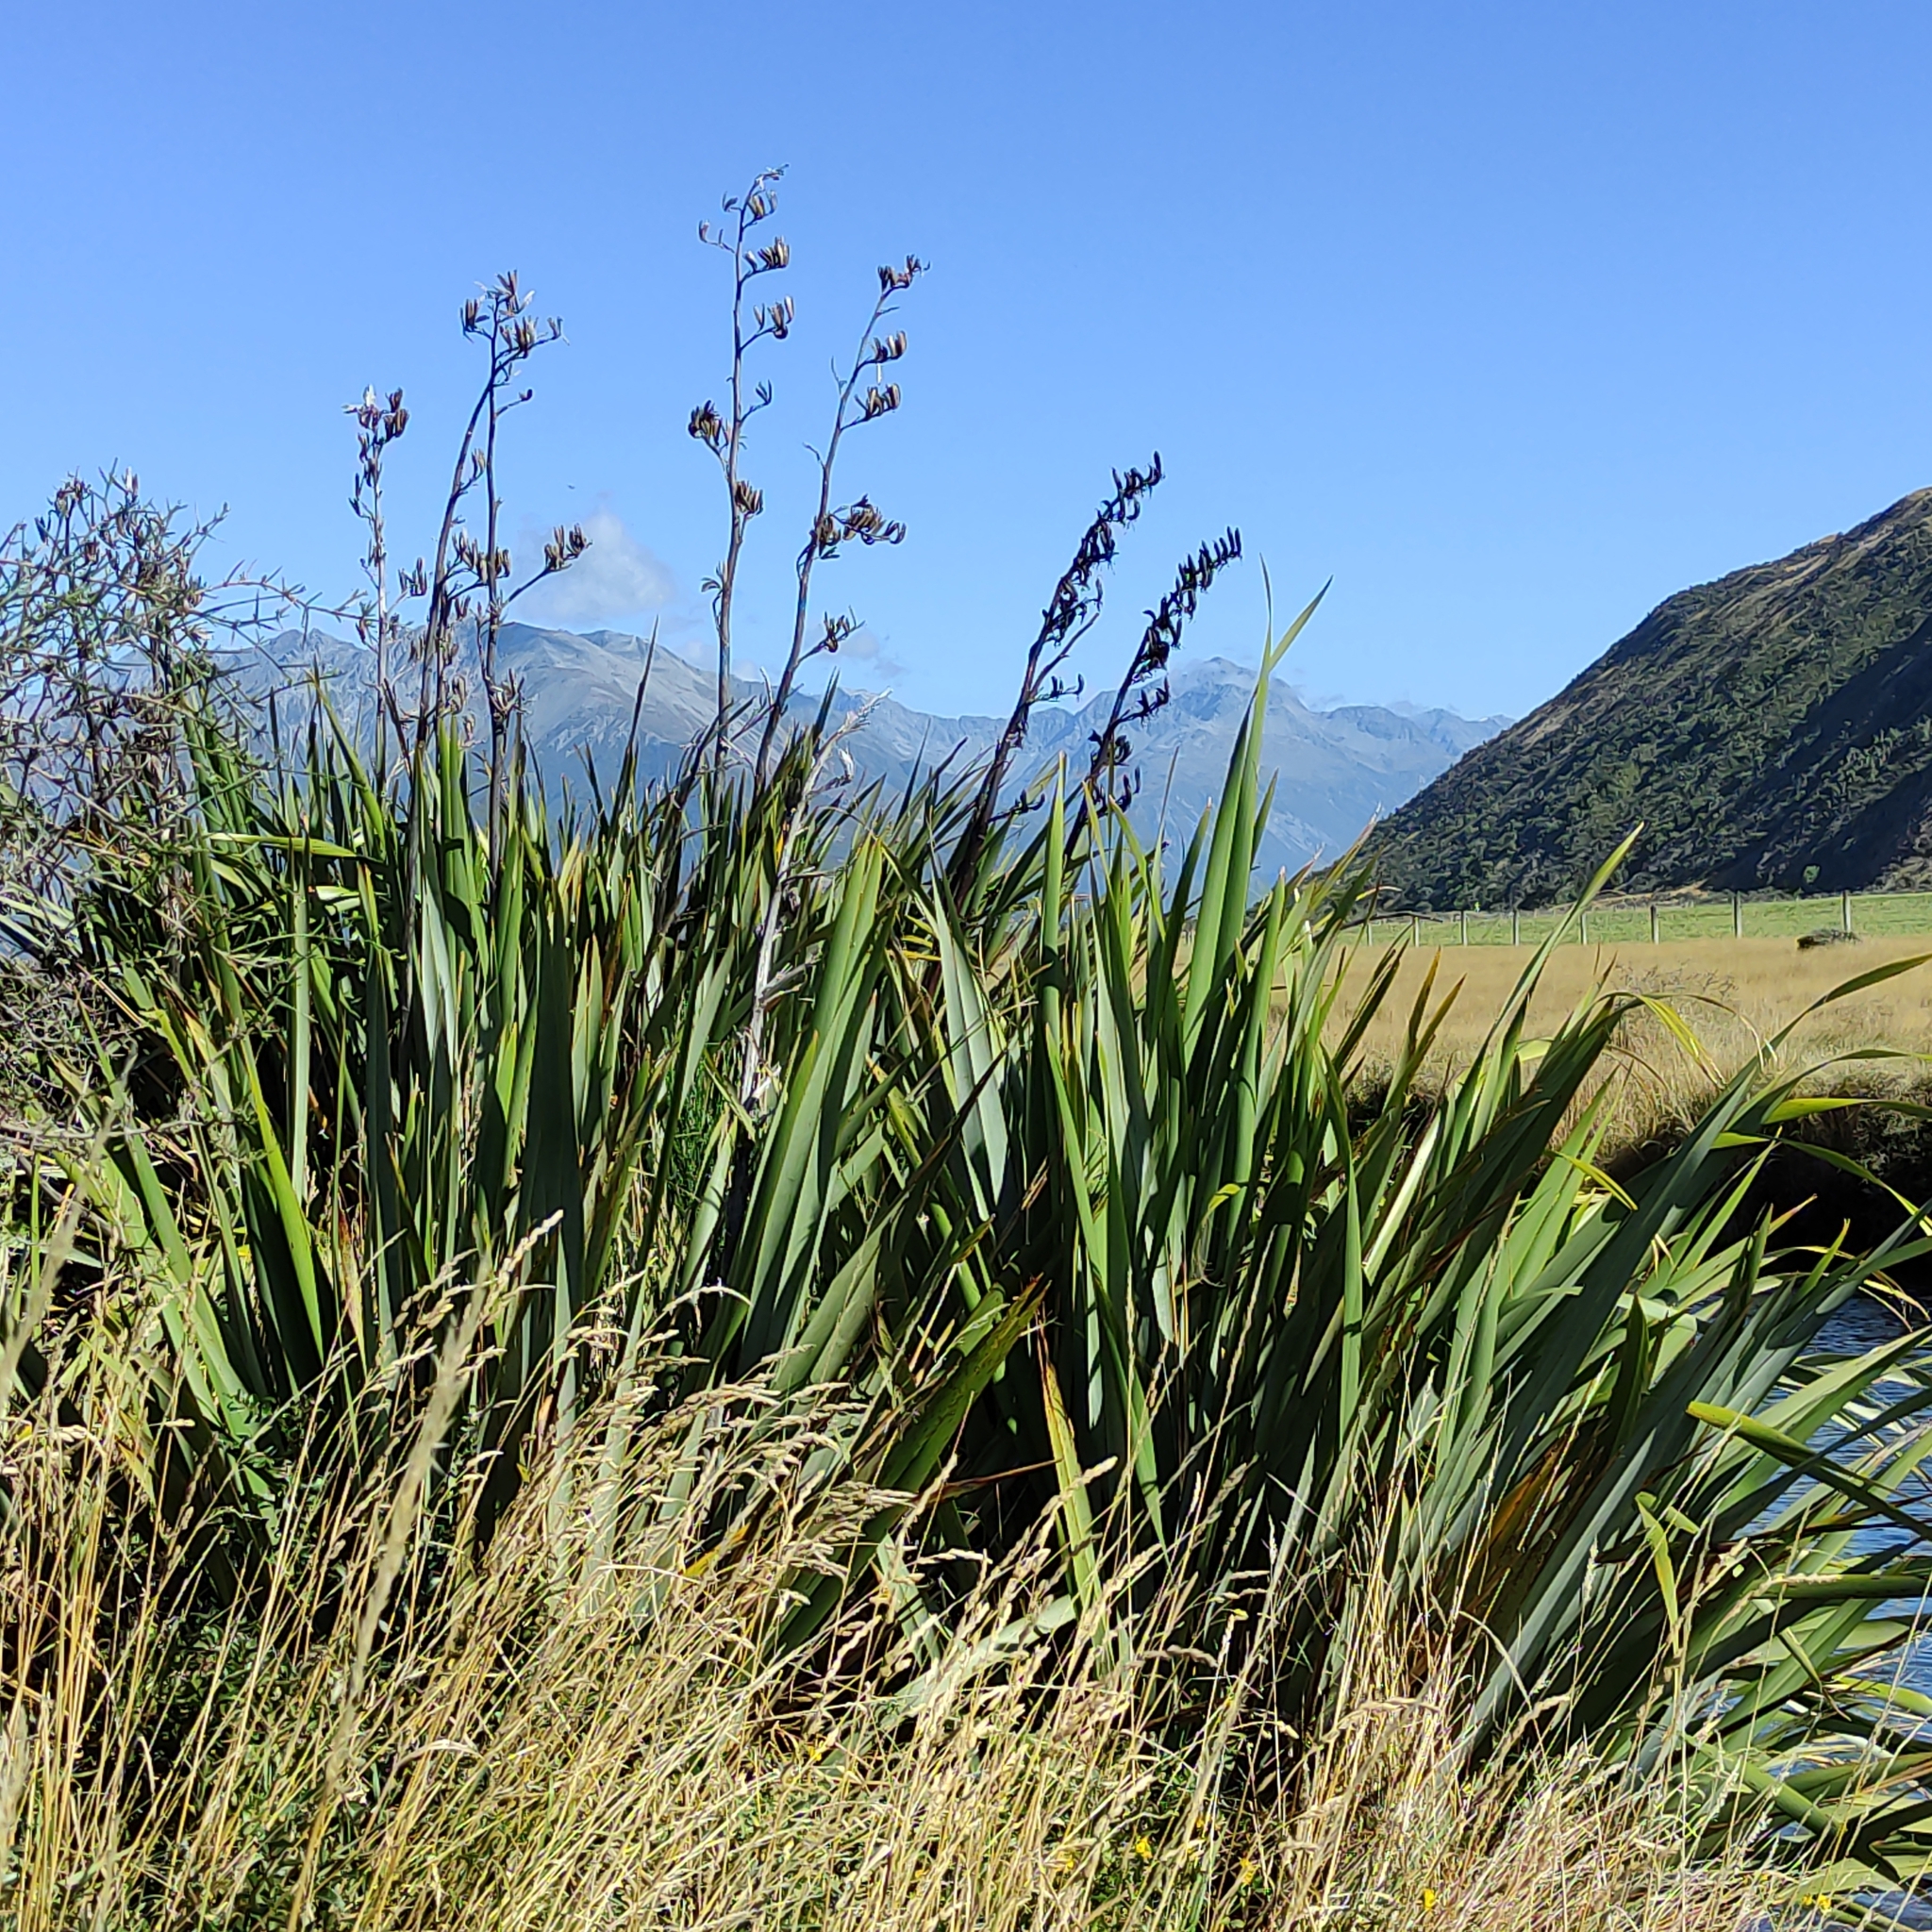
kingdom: Plantae
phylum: Tracheophyta
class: Liliopsida
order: Asparagales
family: Asphodelaceae
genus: Phormium
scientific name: Phormium tenax
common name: New zealand flax
